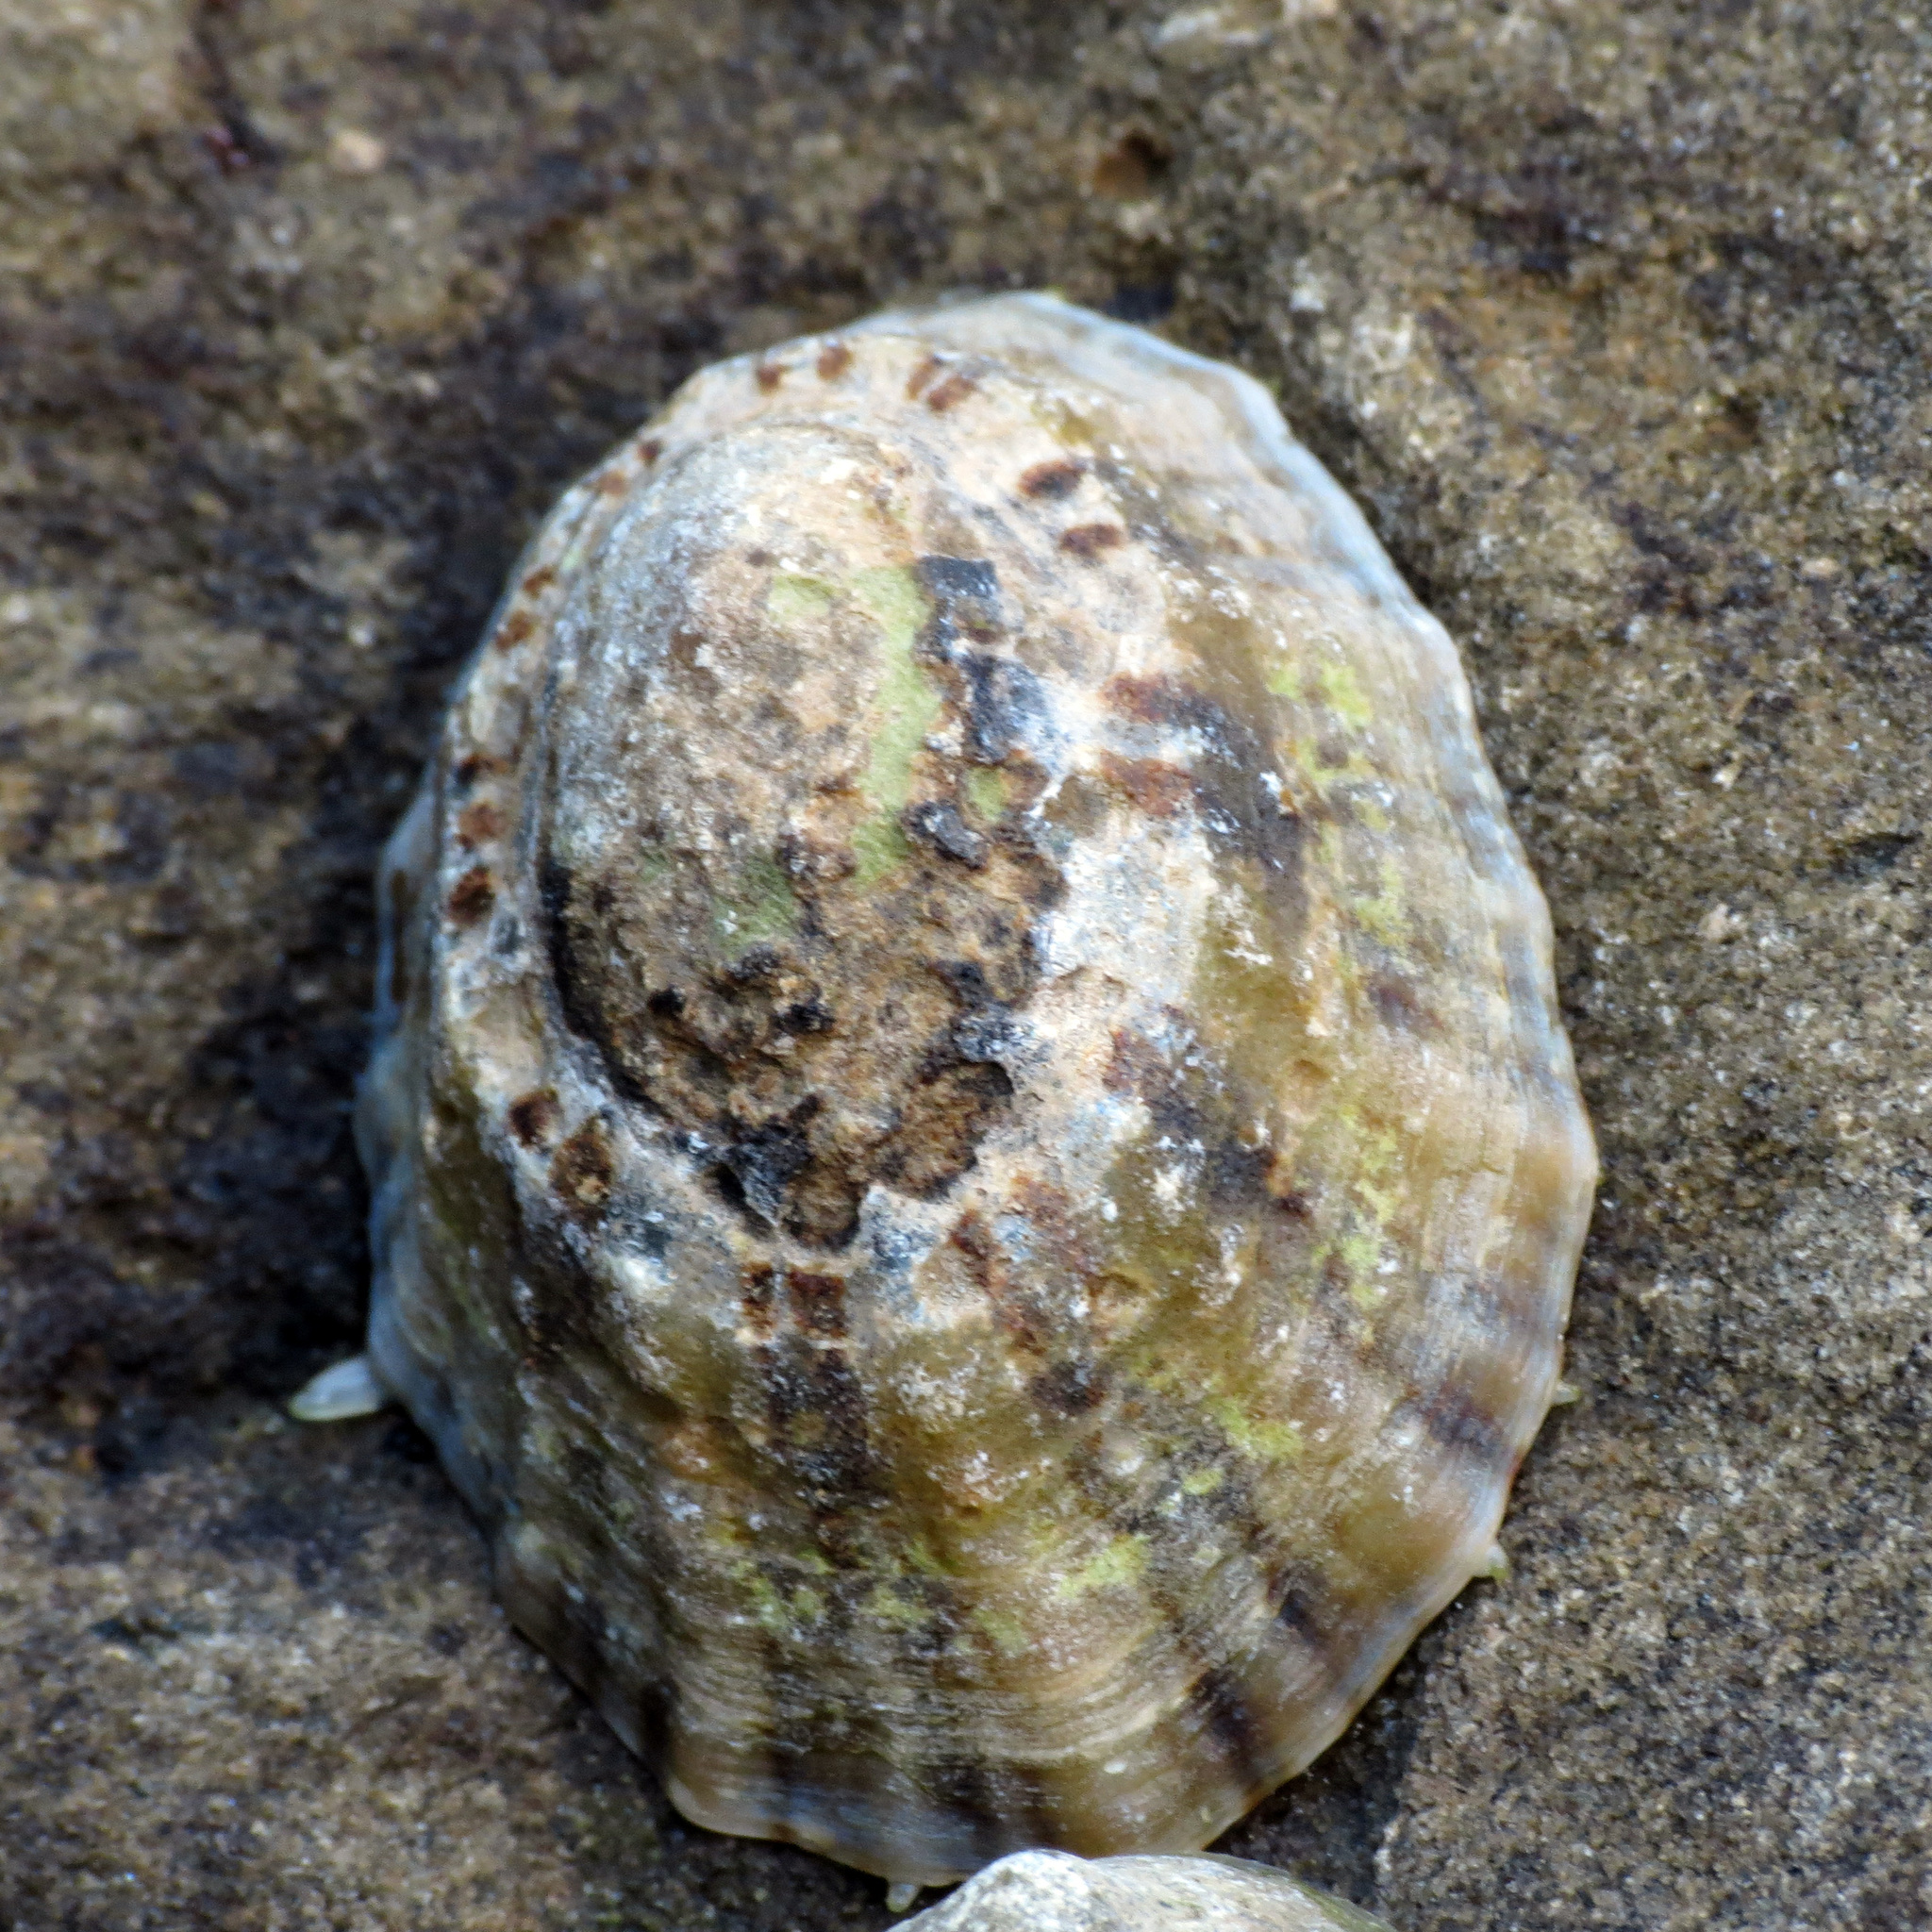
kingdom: Animalia
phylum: Mollusca
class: Gastropoda
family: Nacellidae
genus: Cellana
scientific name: Cellana ornata
